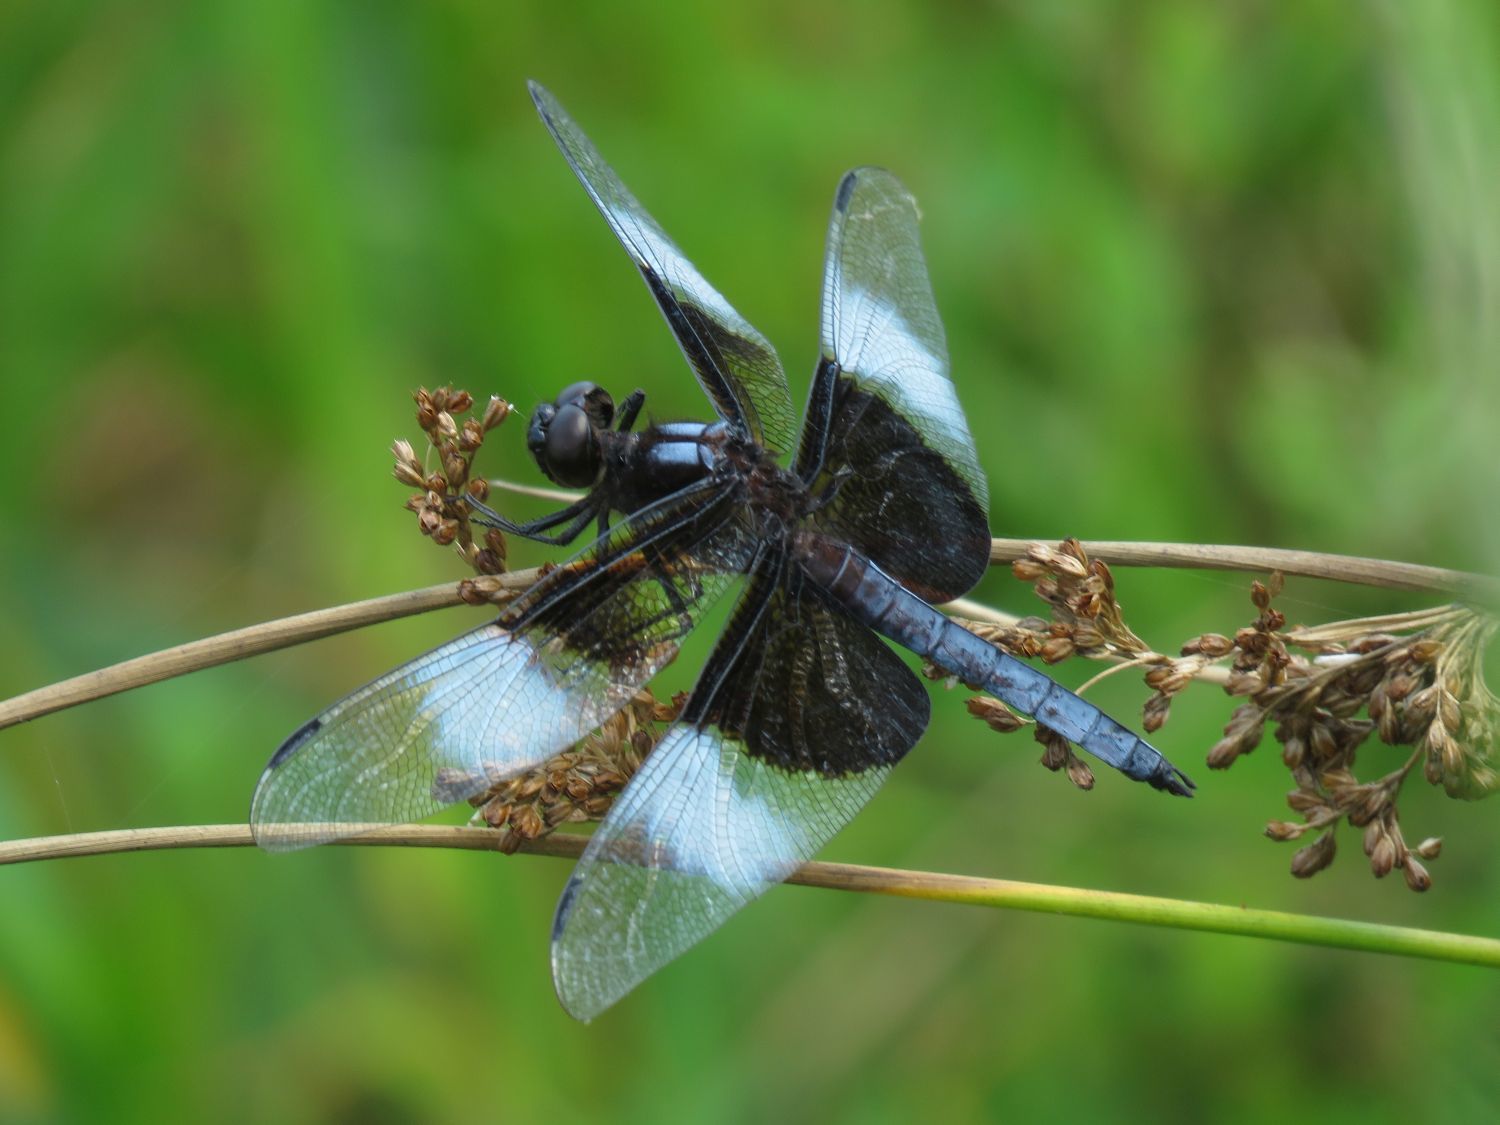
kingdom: Animalia
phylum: Arthropoda
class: Insecta
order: Odonata
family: Libellulidae
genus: Libellula
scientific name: Libellula luctuosa
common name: Widow skimmer
